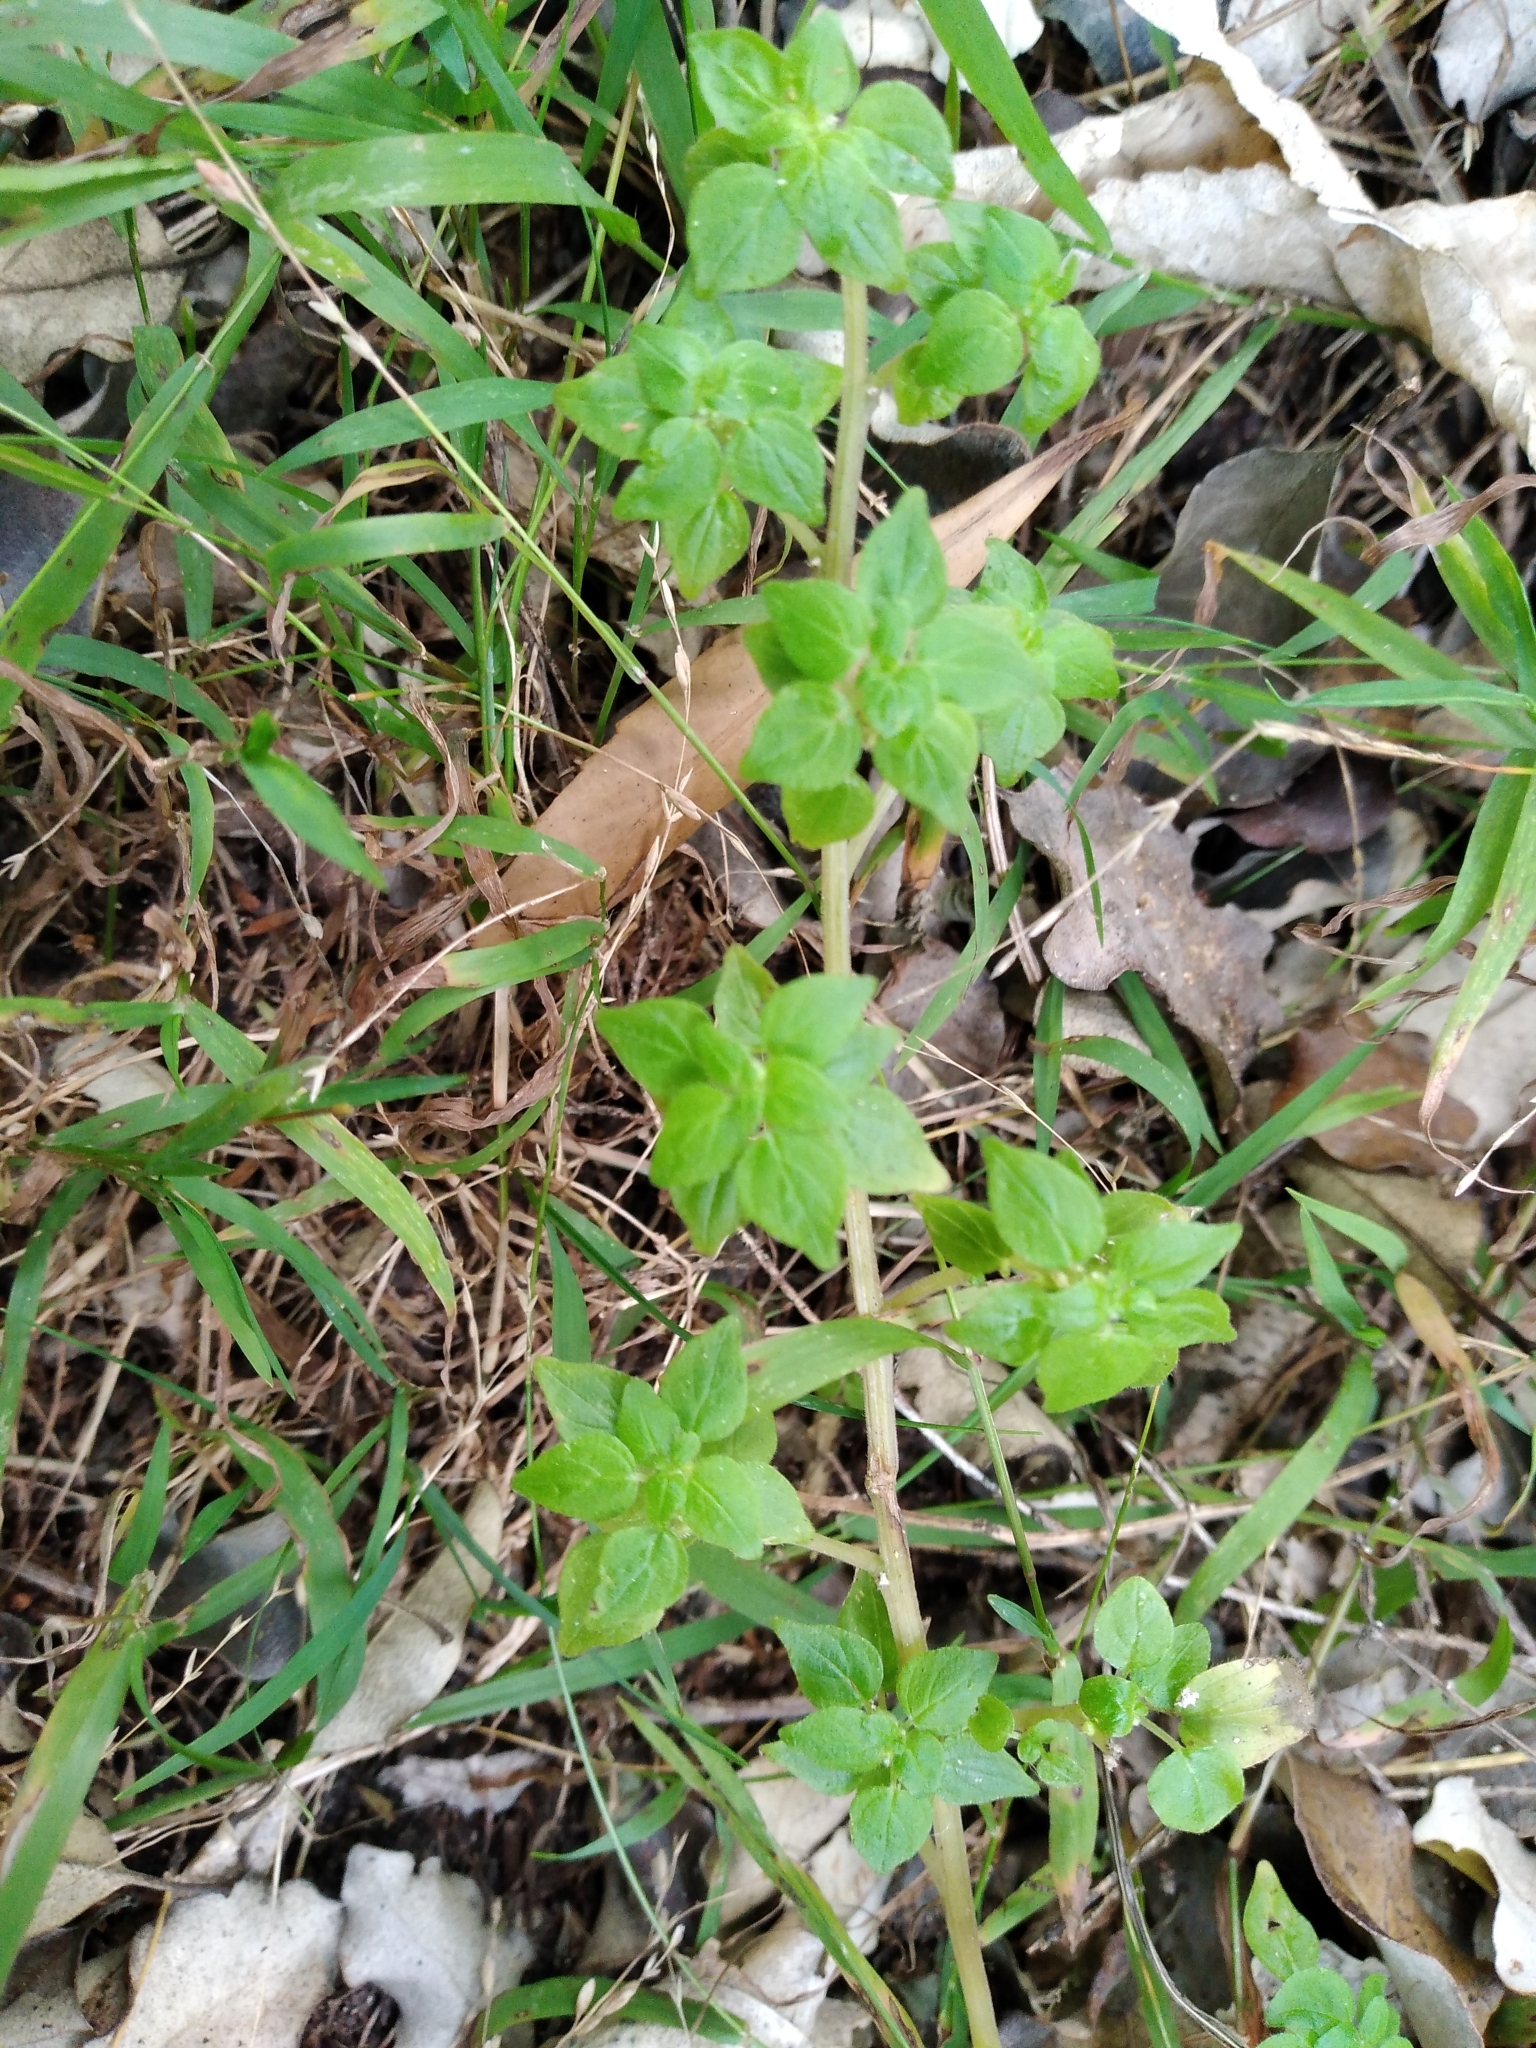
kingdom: Plantae
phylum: Tracheophyta
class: Magnoliopsida
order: Rosales
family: Urticaceae
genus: Parietaria
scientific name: Parietaria debilis
